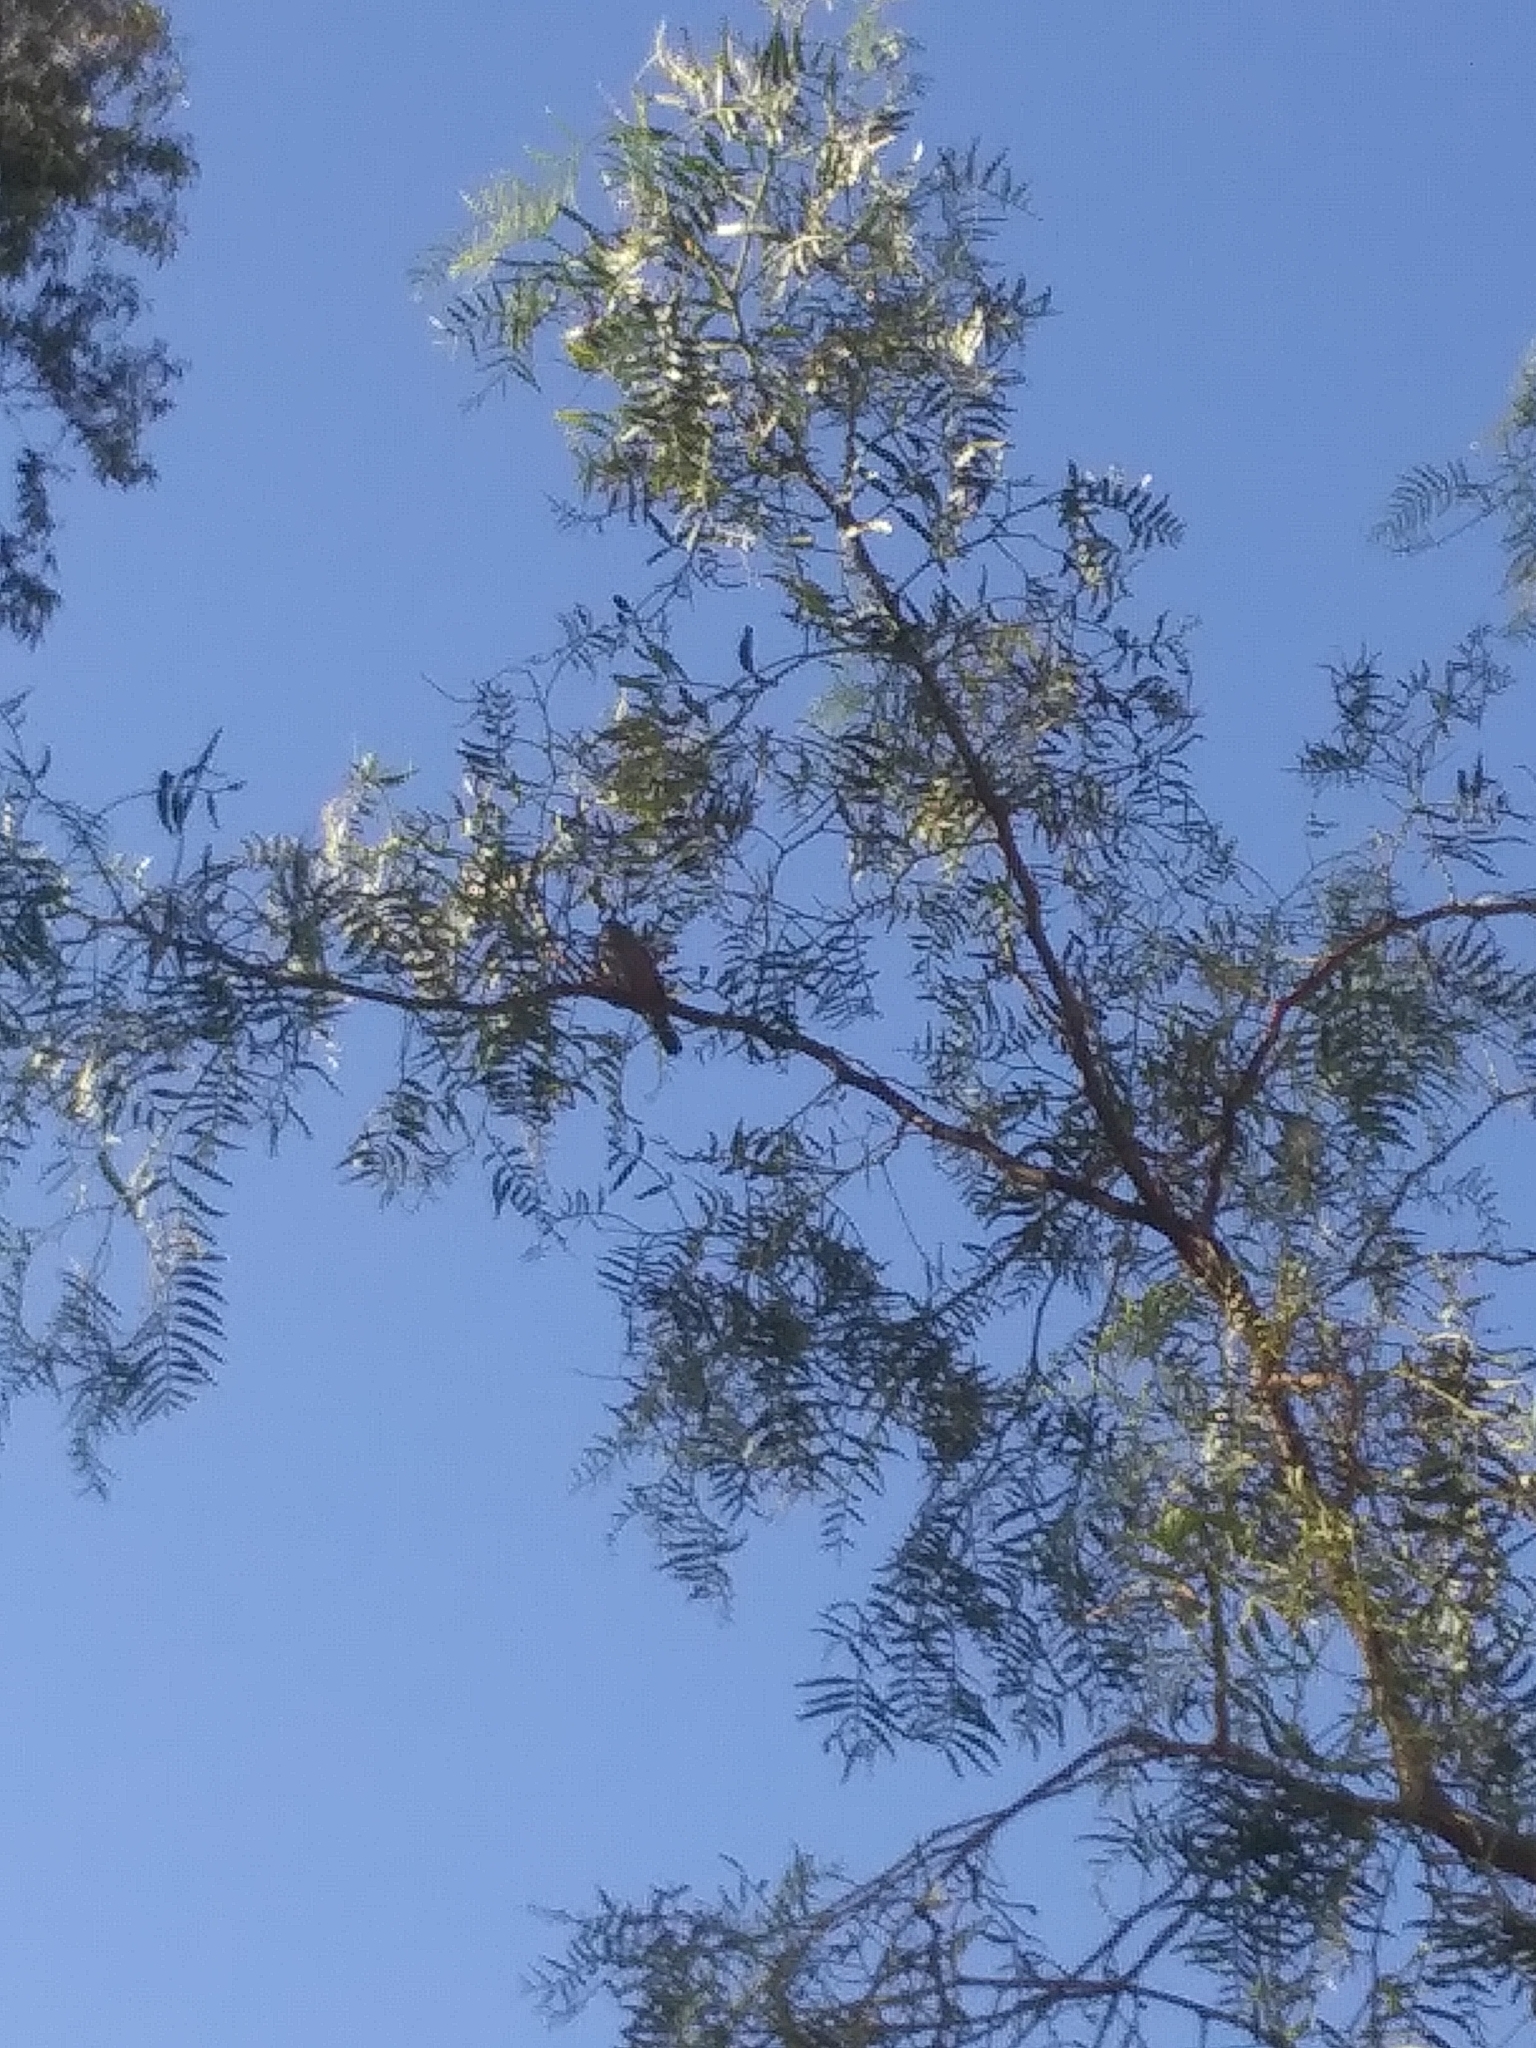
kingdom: Animalia
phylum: Chordata
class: Aves
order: Passeriformes
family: Troglodytidae
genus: Troglodytes
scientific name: Troglodytes aedon
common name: House wren
